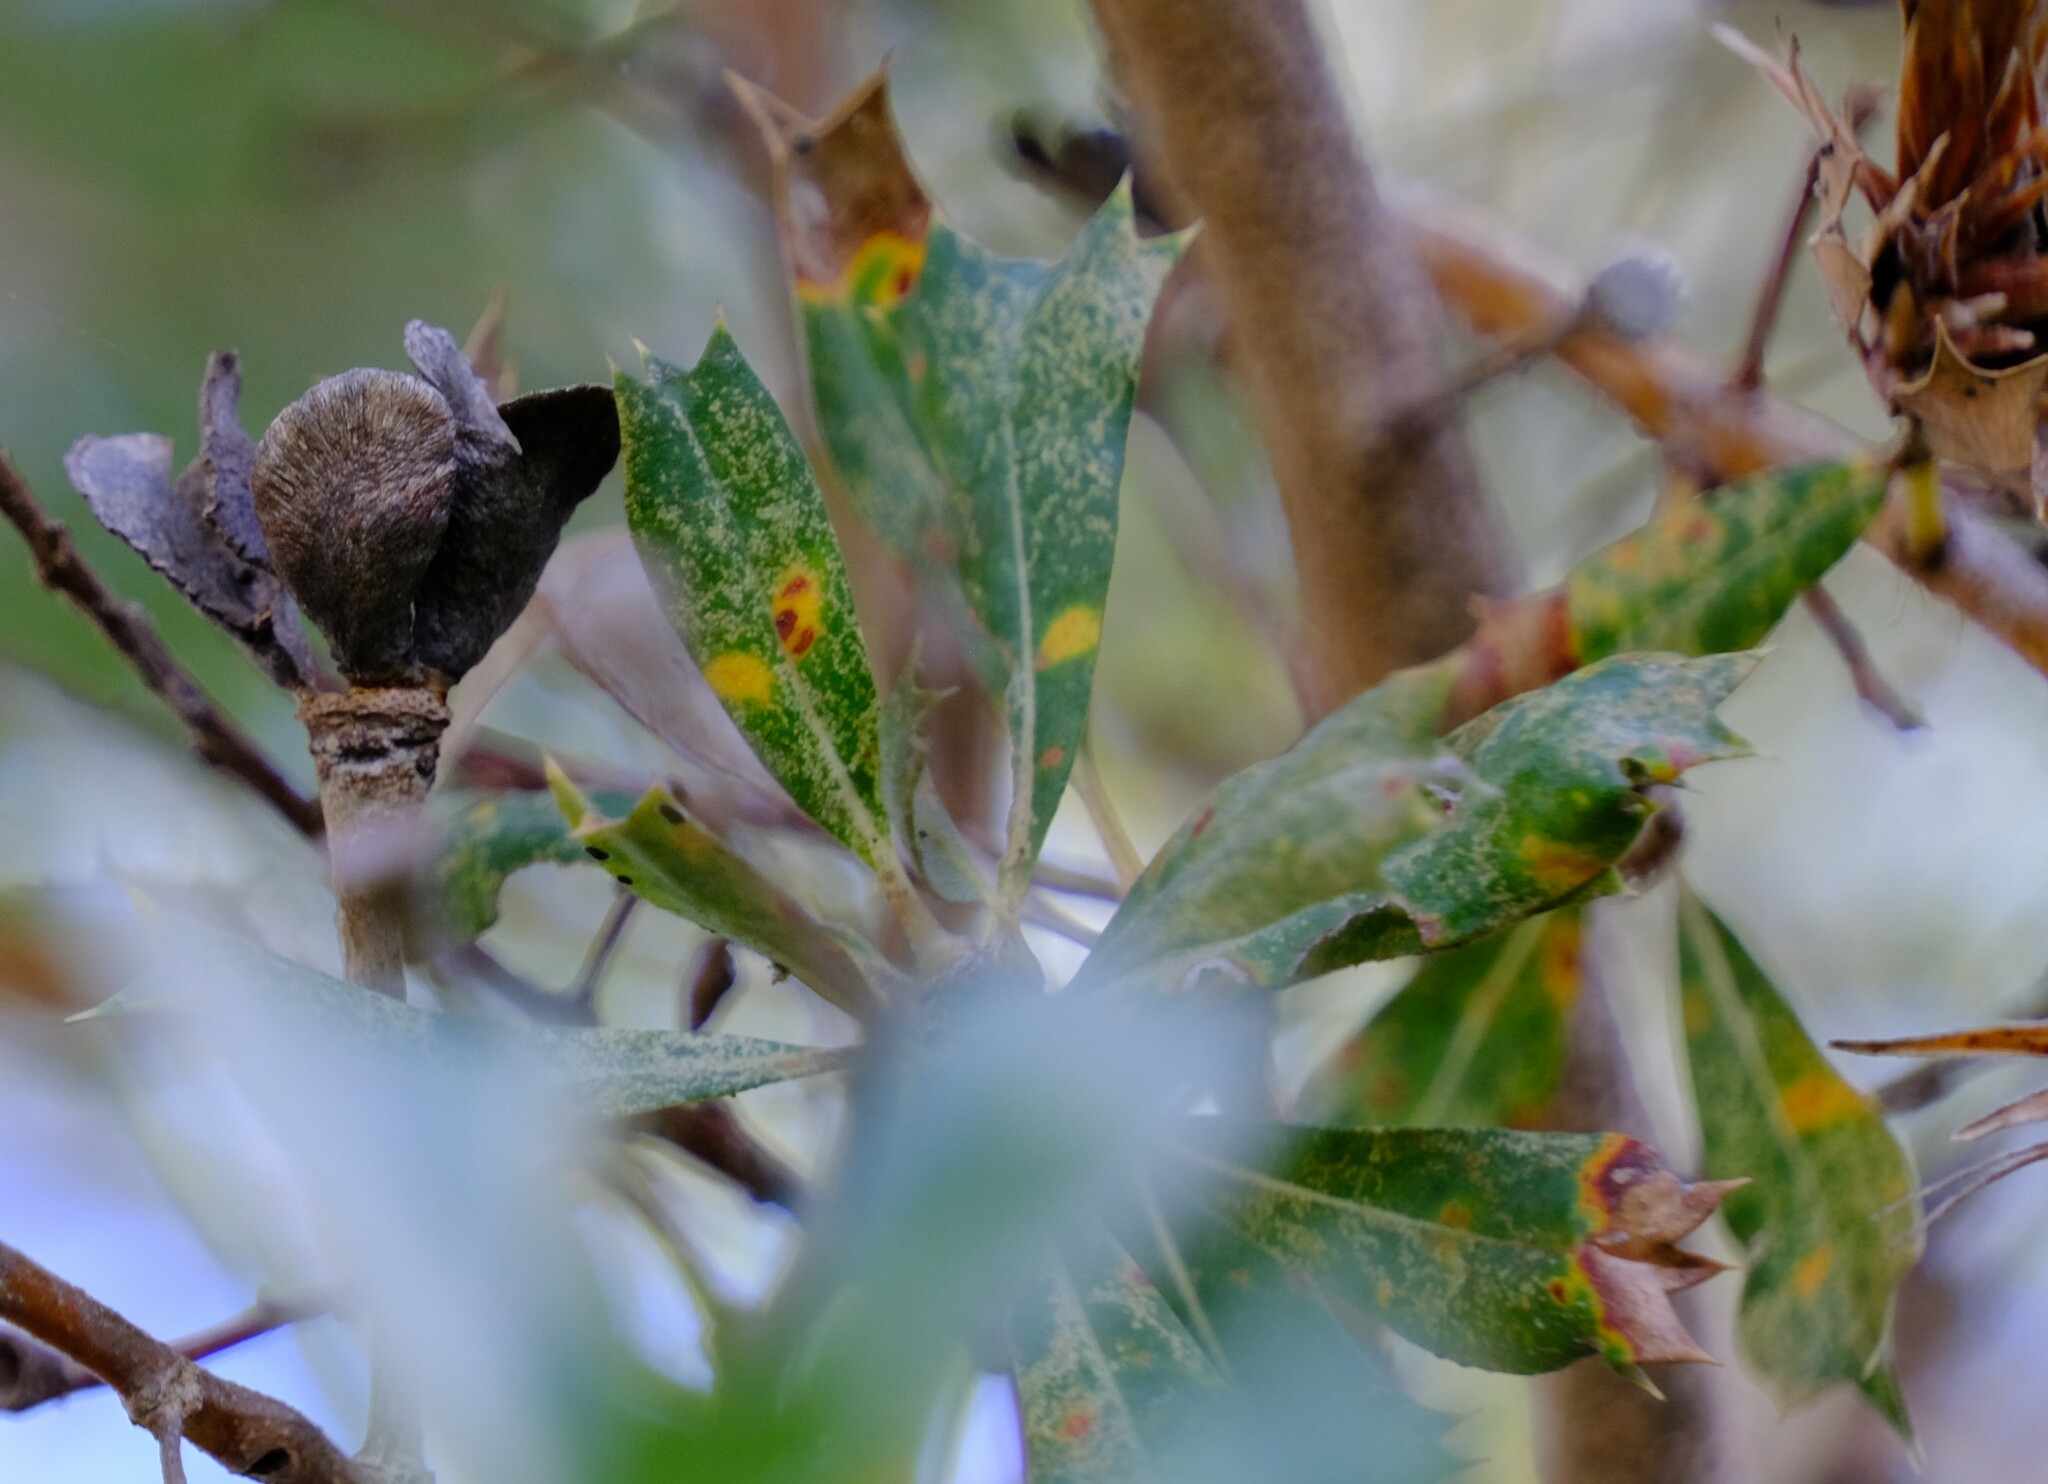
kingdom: Plantae
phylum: Tracheophyta
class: Magnoliopsida
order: Proteales
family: Proteaceae
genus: Banksia
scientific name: Banksia sessilis
